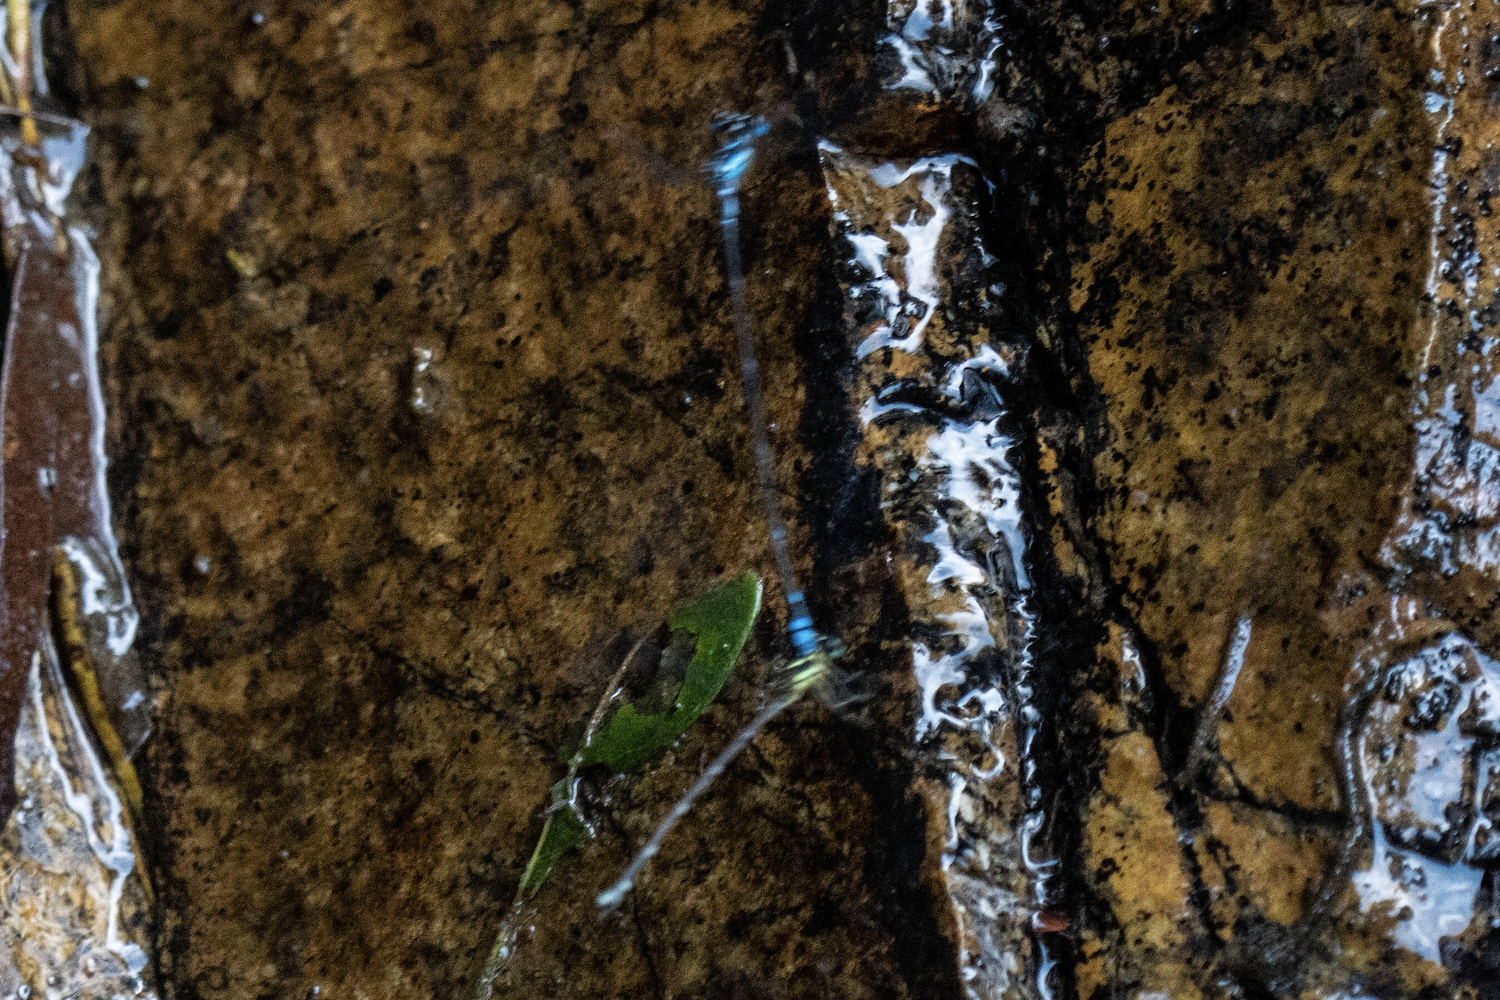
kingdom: Animalia
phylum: Arthropoda
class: Insecta
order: Odonata
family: Platycnemididae
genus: Coeliccia
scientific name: Coeliccia cyanomelas
